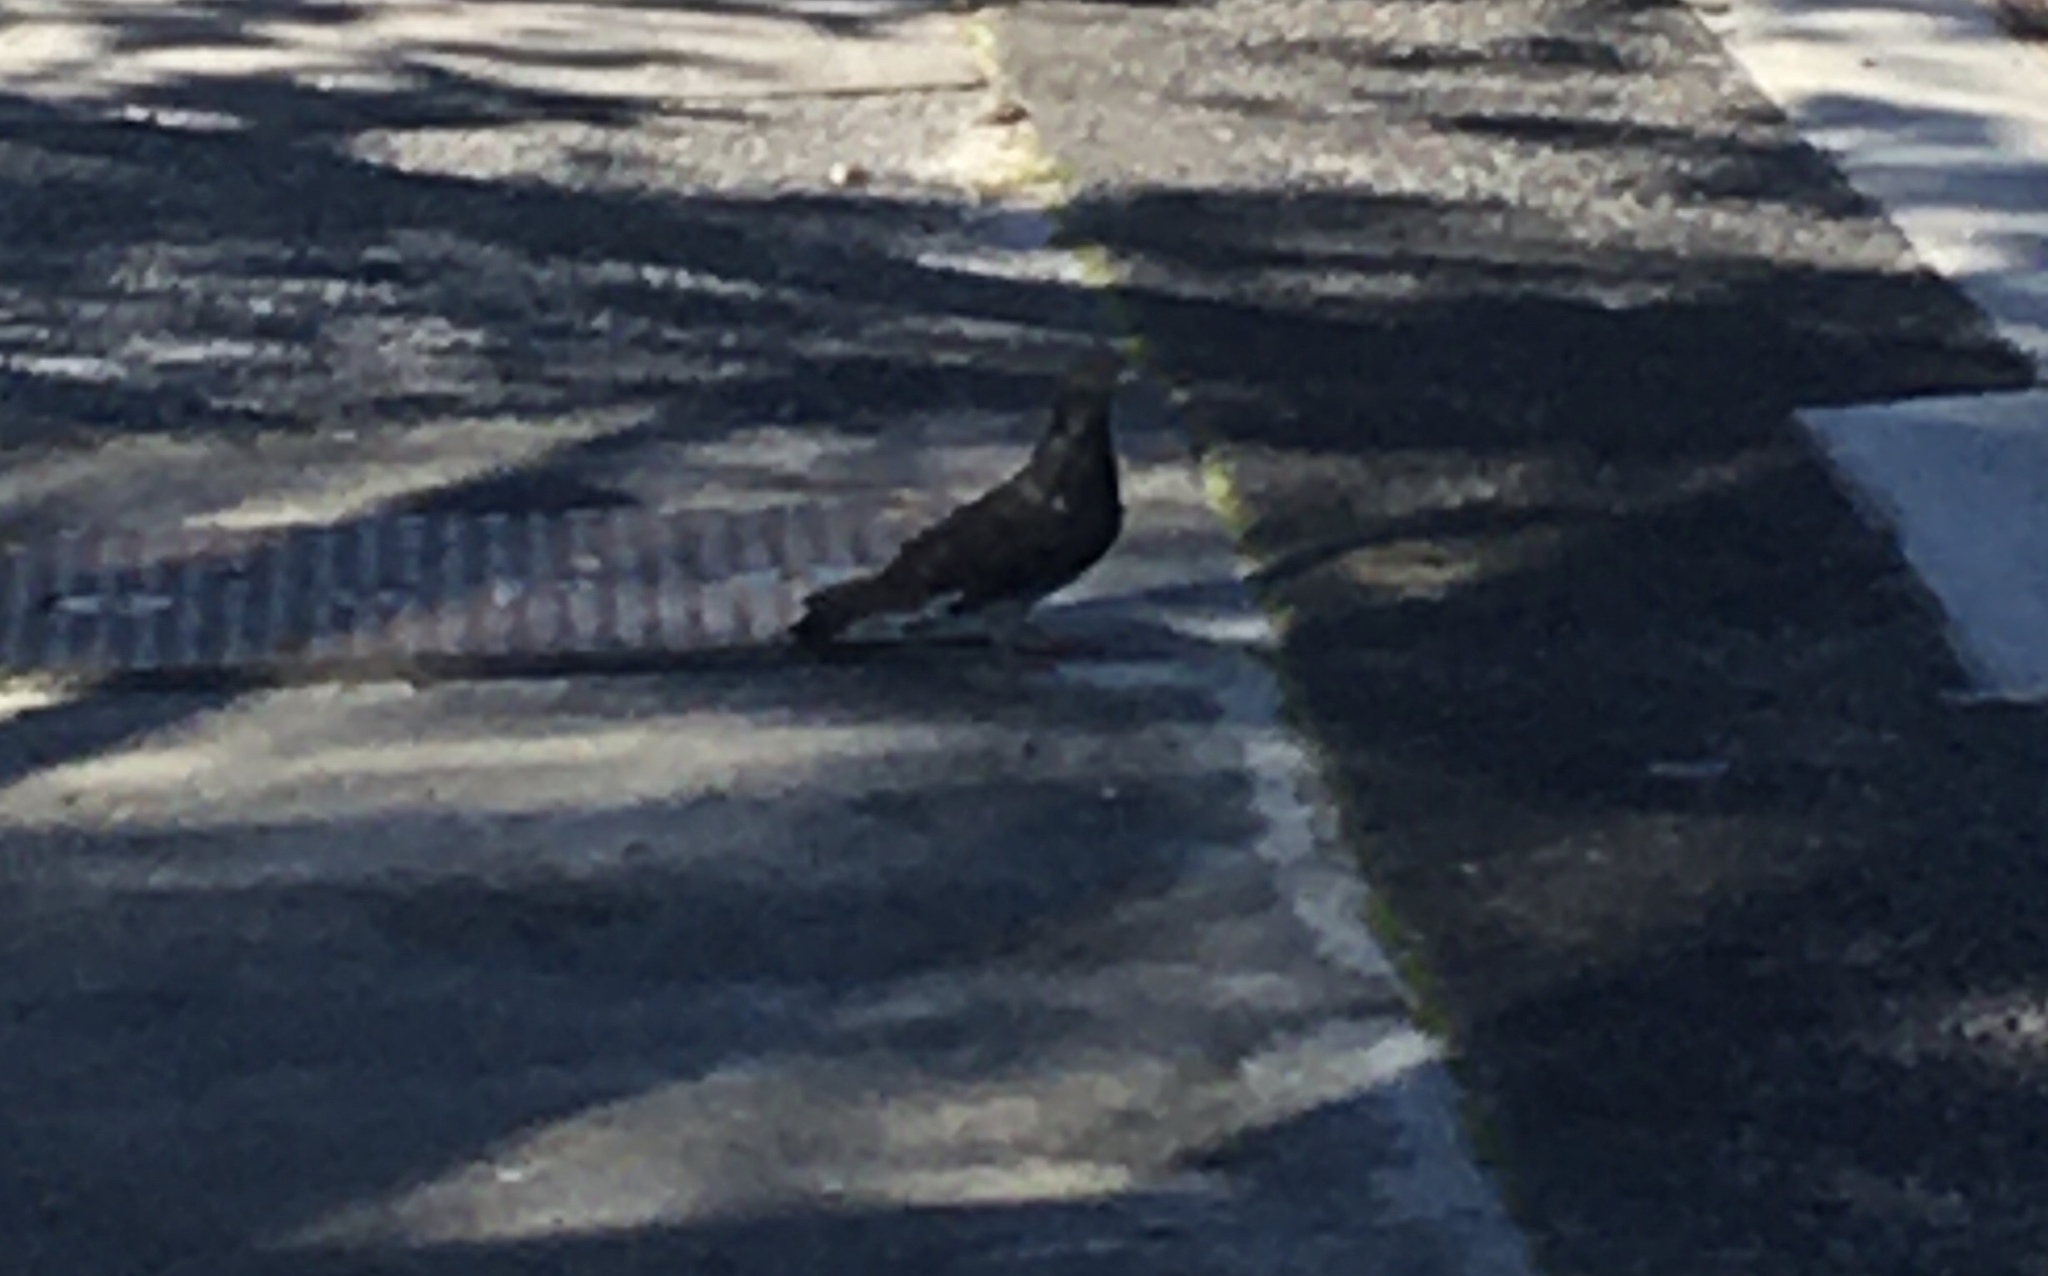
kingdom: Animalia
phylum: Chordata
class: Aves
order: Columbiformes
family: Columbidae
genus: Columba
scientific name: Columba livia
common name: Rock pigeon
